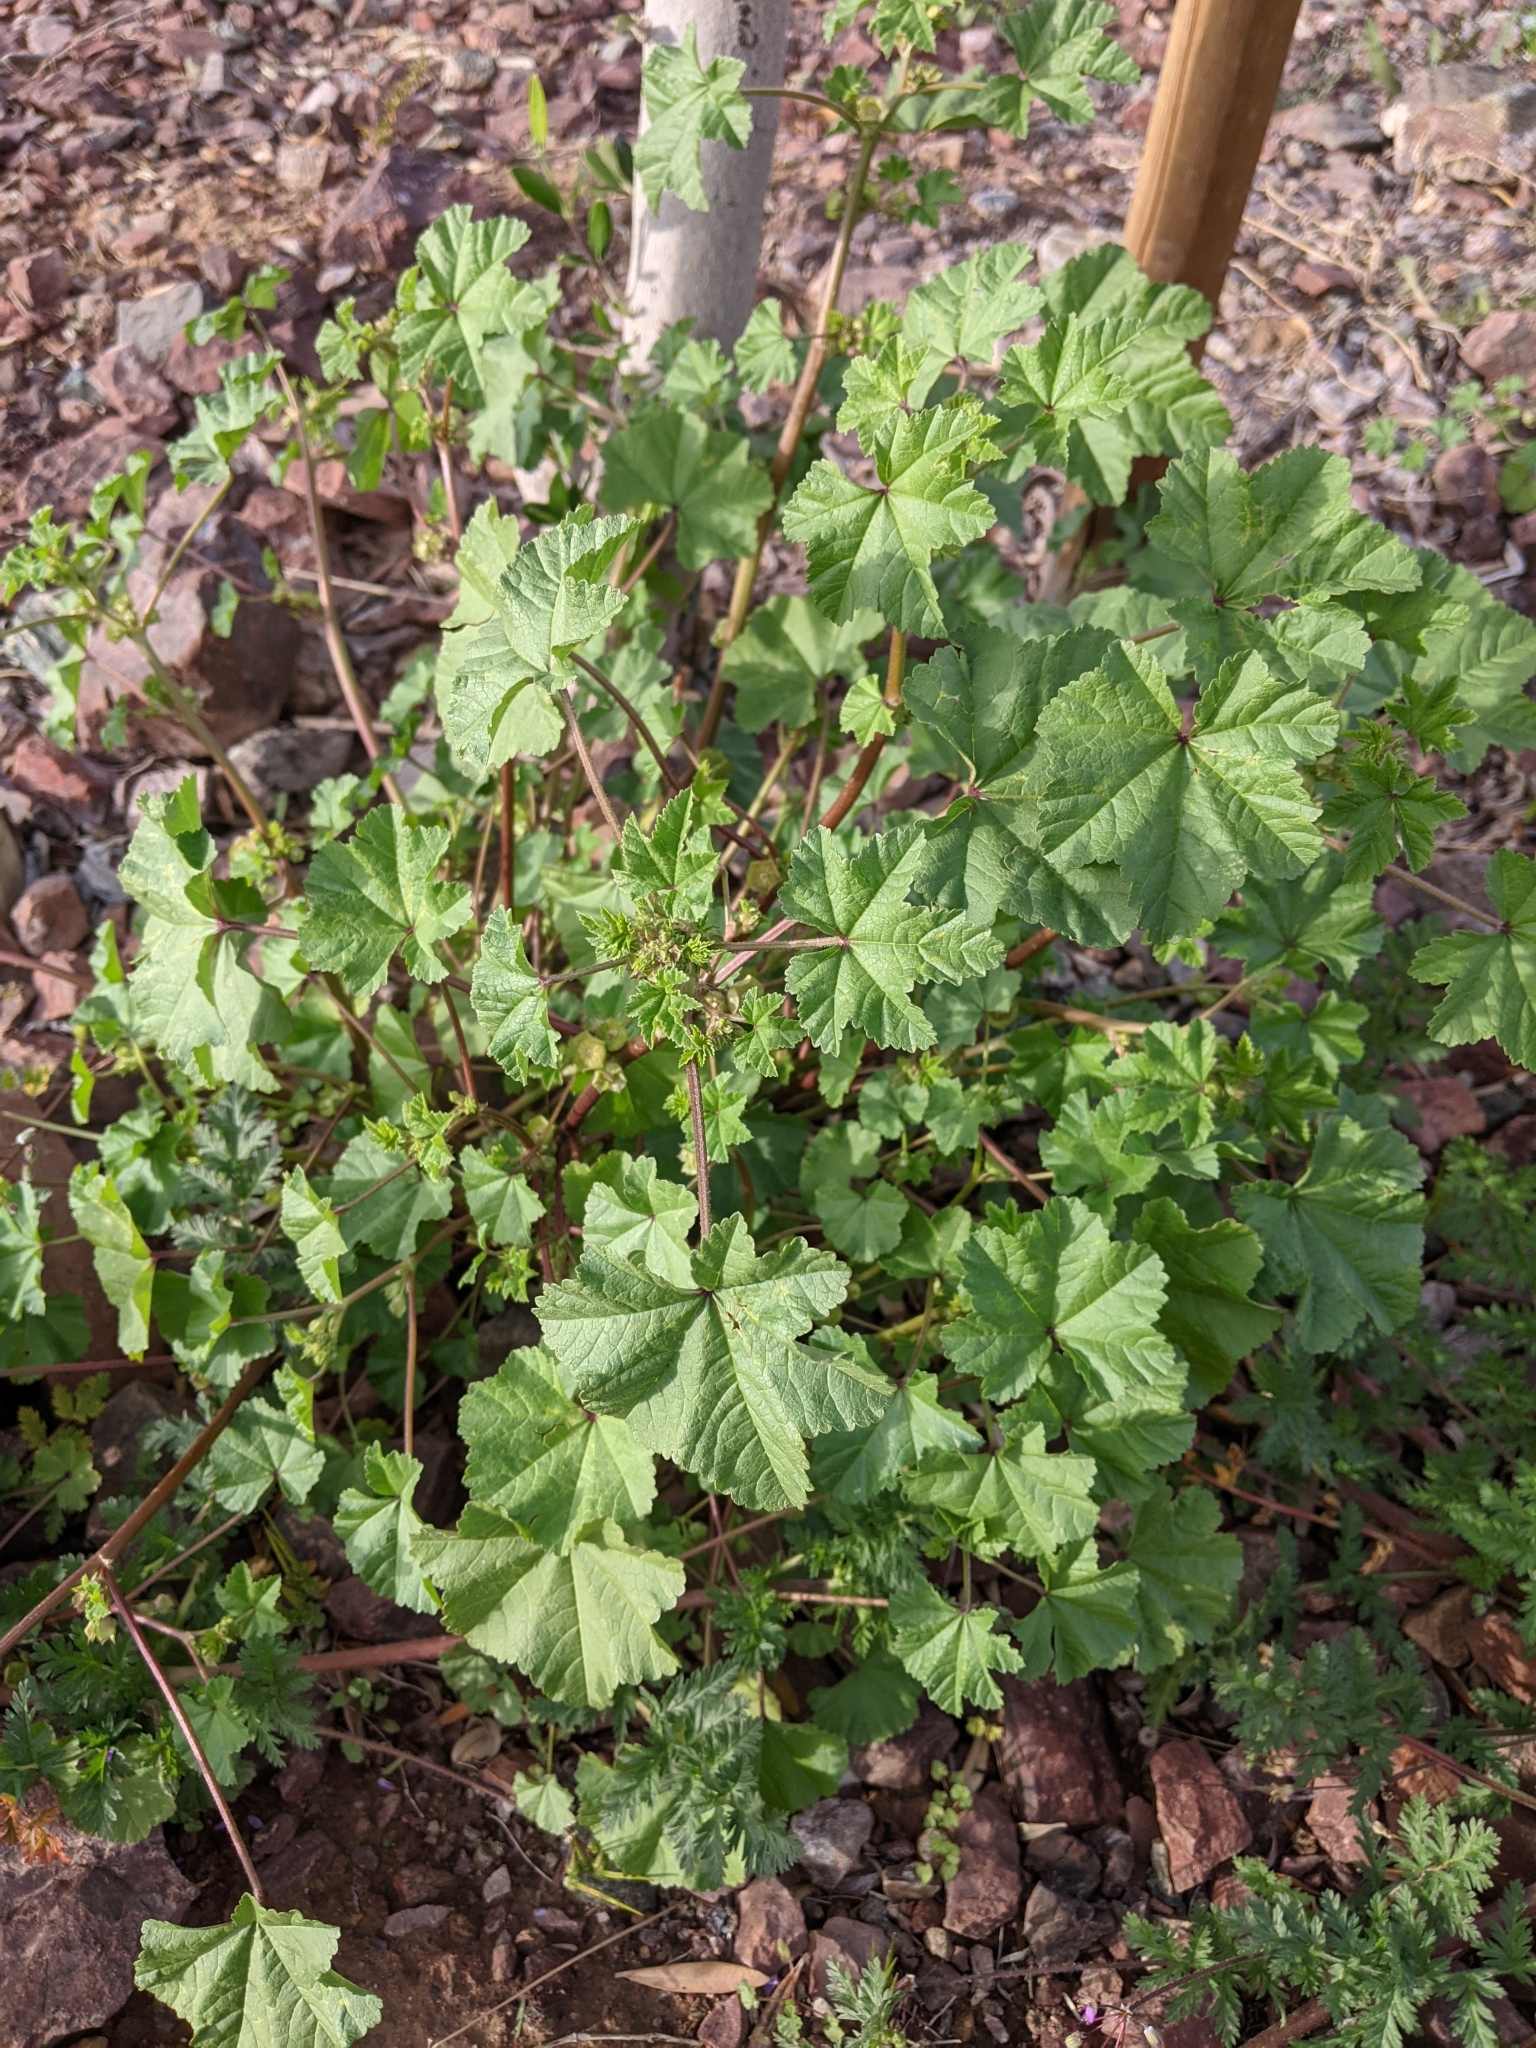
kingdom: Plantae
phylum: Tracheophyta
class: Magnoliopsida
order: Malvales
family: Malvaceae
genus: Malva
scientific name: Malva parviflora
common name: Least mallow
